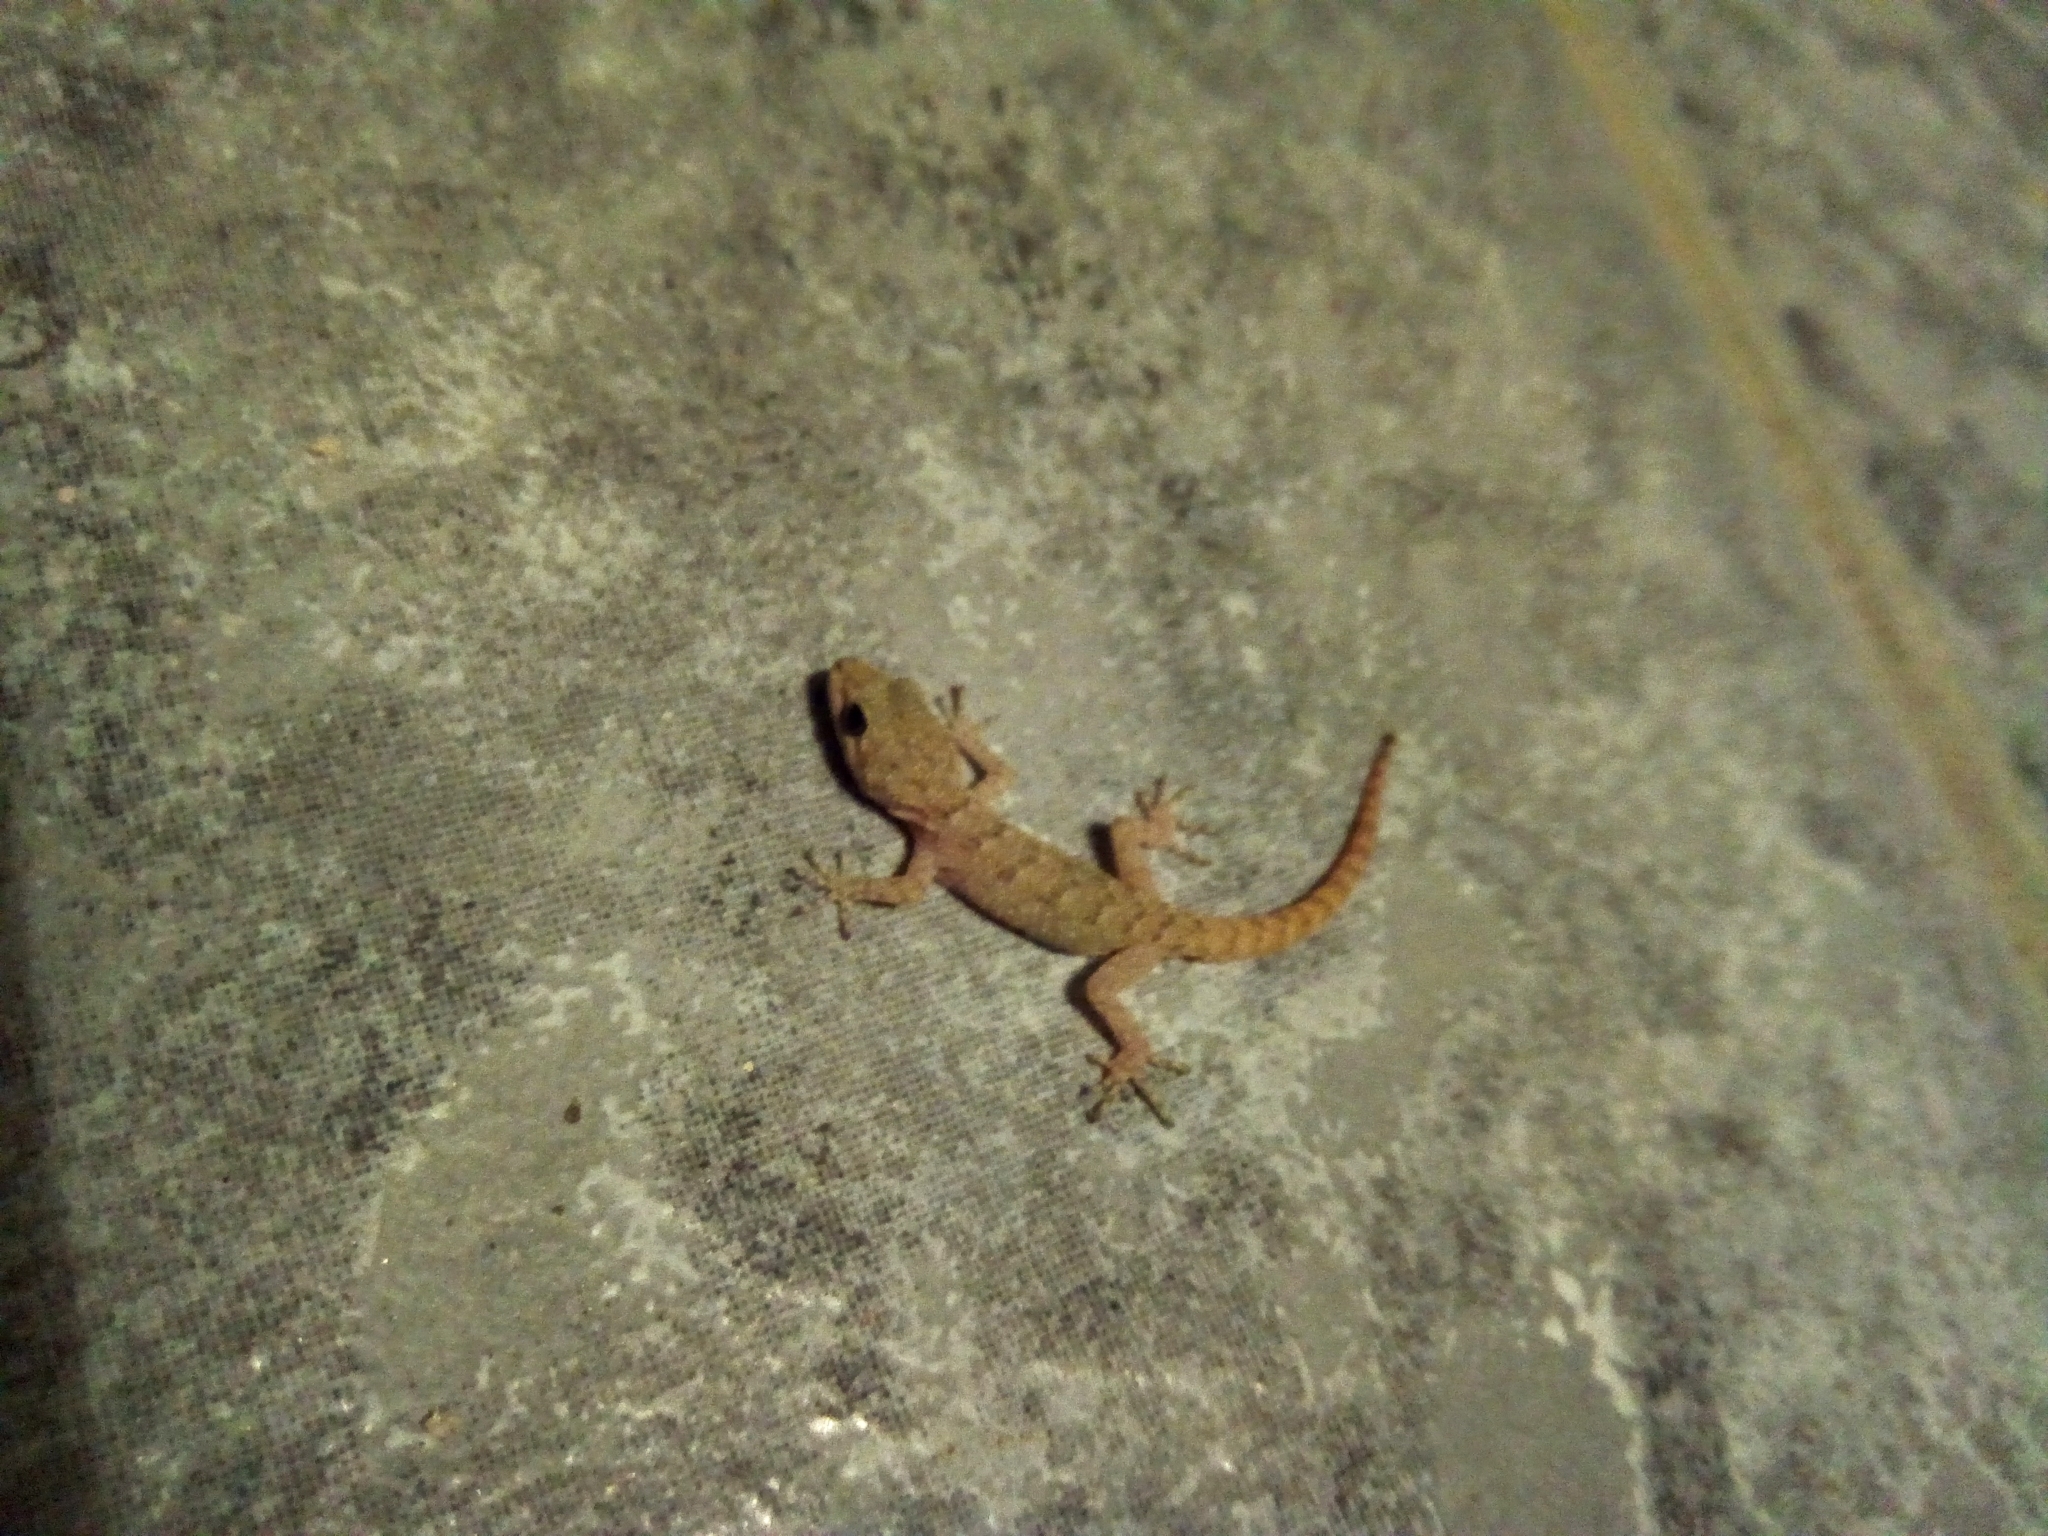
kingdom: Animalia
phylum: Chordata
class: Squamata
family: Gekkonidae
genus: Mediodactylus
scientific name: Mediodactylus kotschyi
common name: Kotschy's gecko
